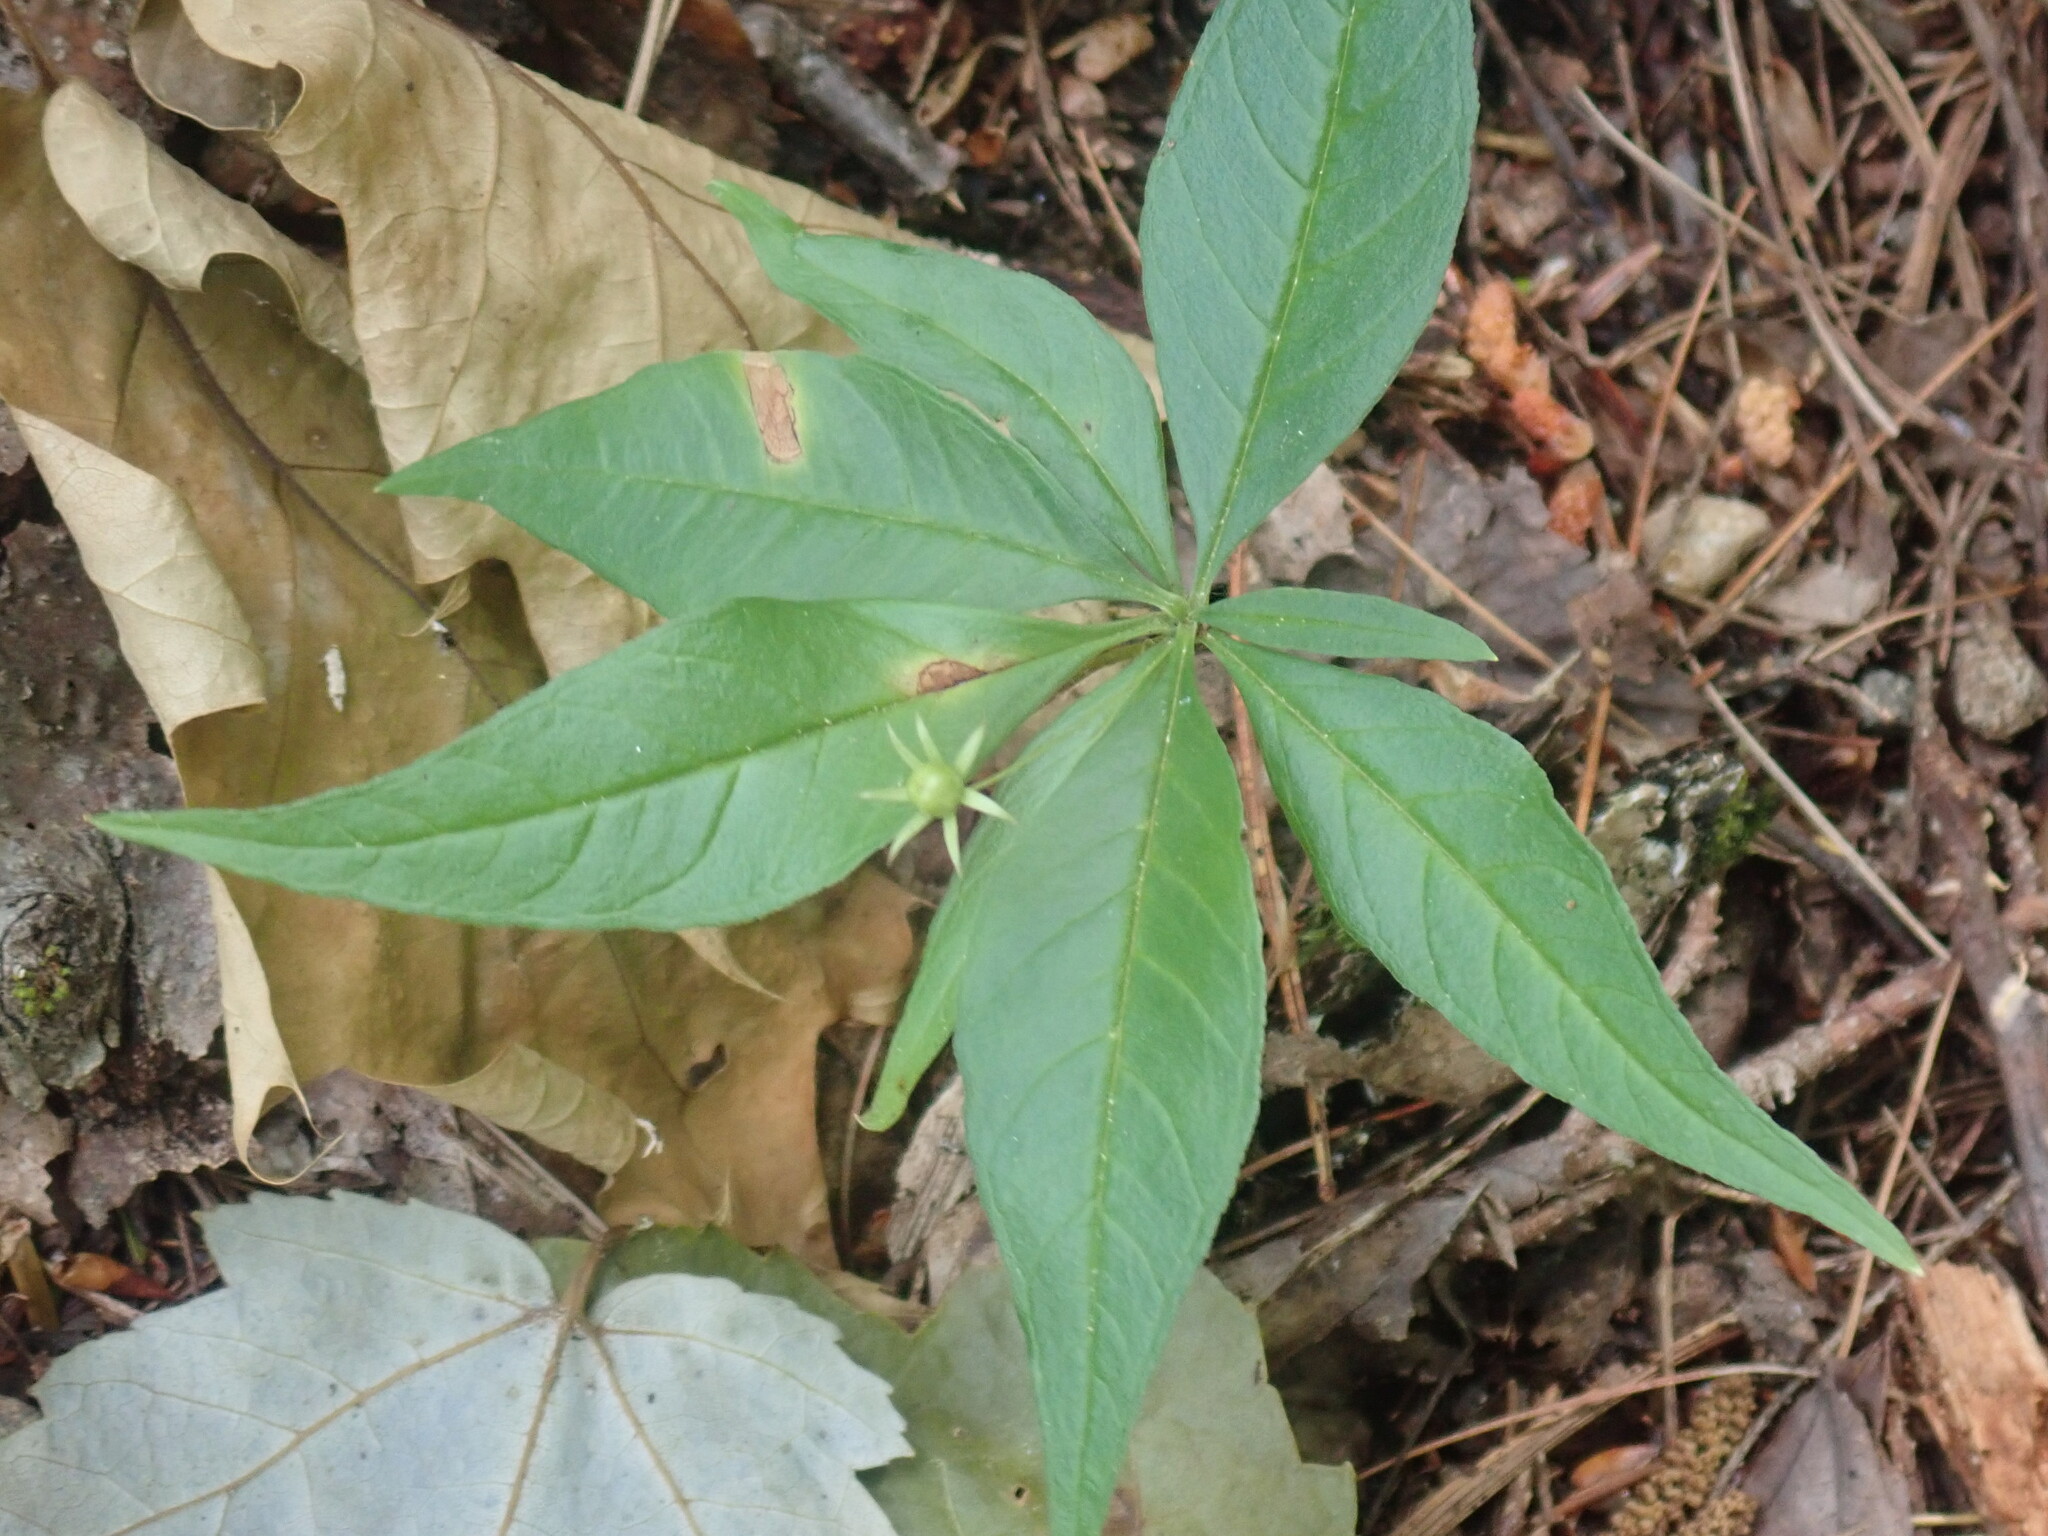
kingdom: Plantae
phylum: Tracheophyta
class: Magnoliopsida
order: Ericales
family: Primulaceae
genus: Lysimachia
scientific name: Lysimachia borealis
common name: American starflower
